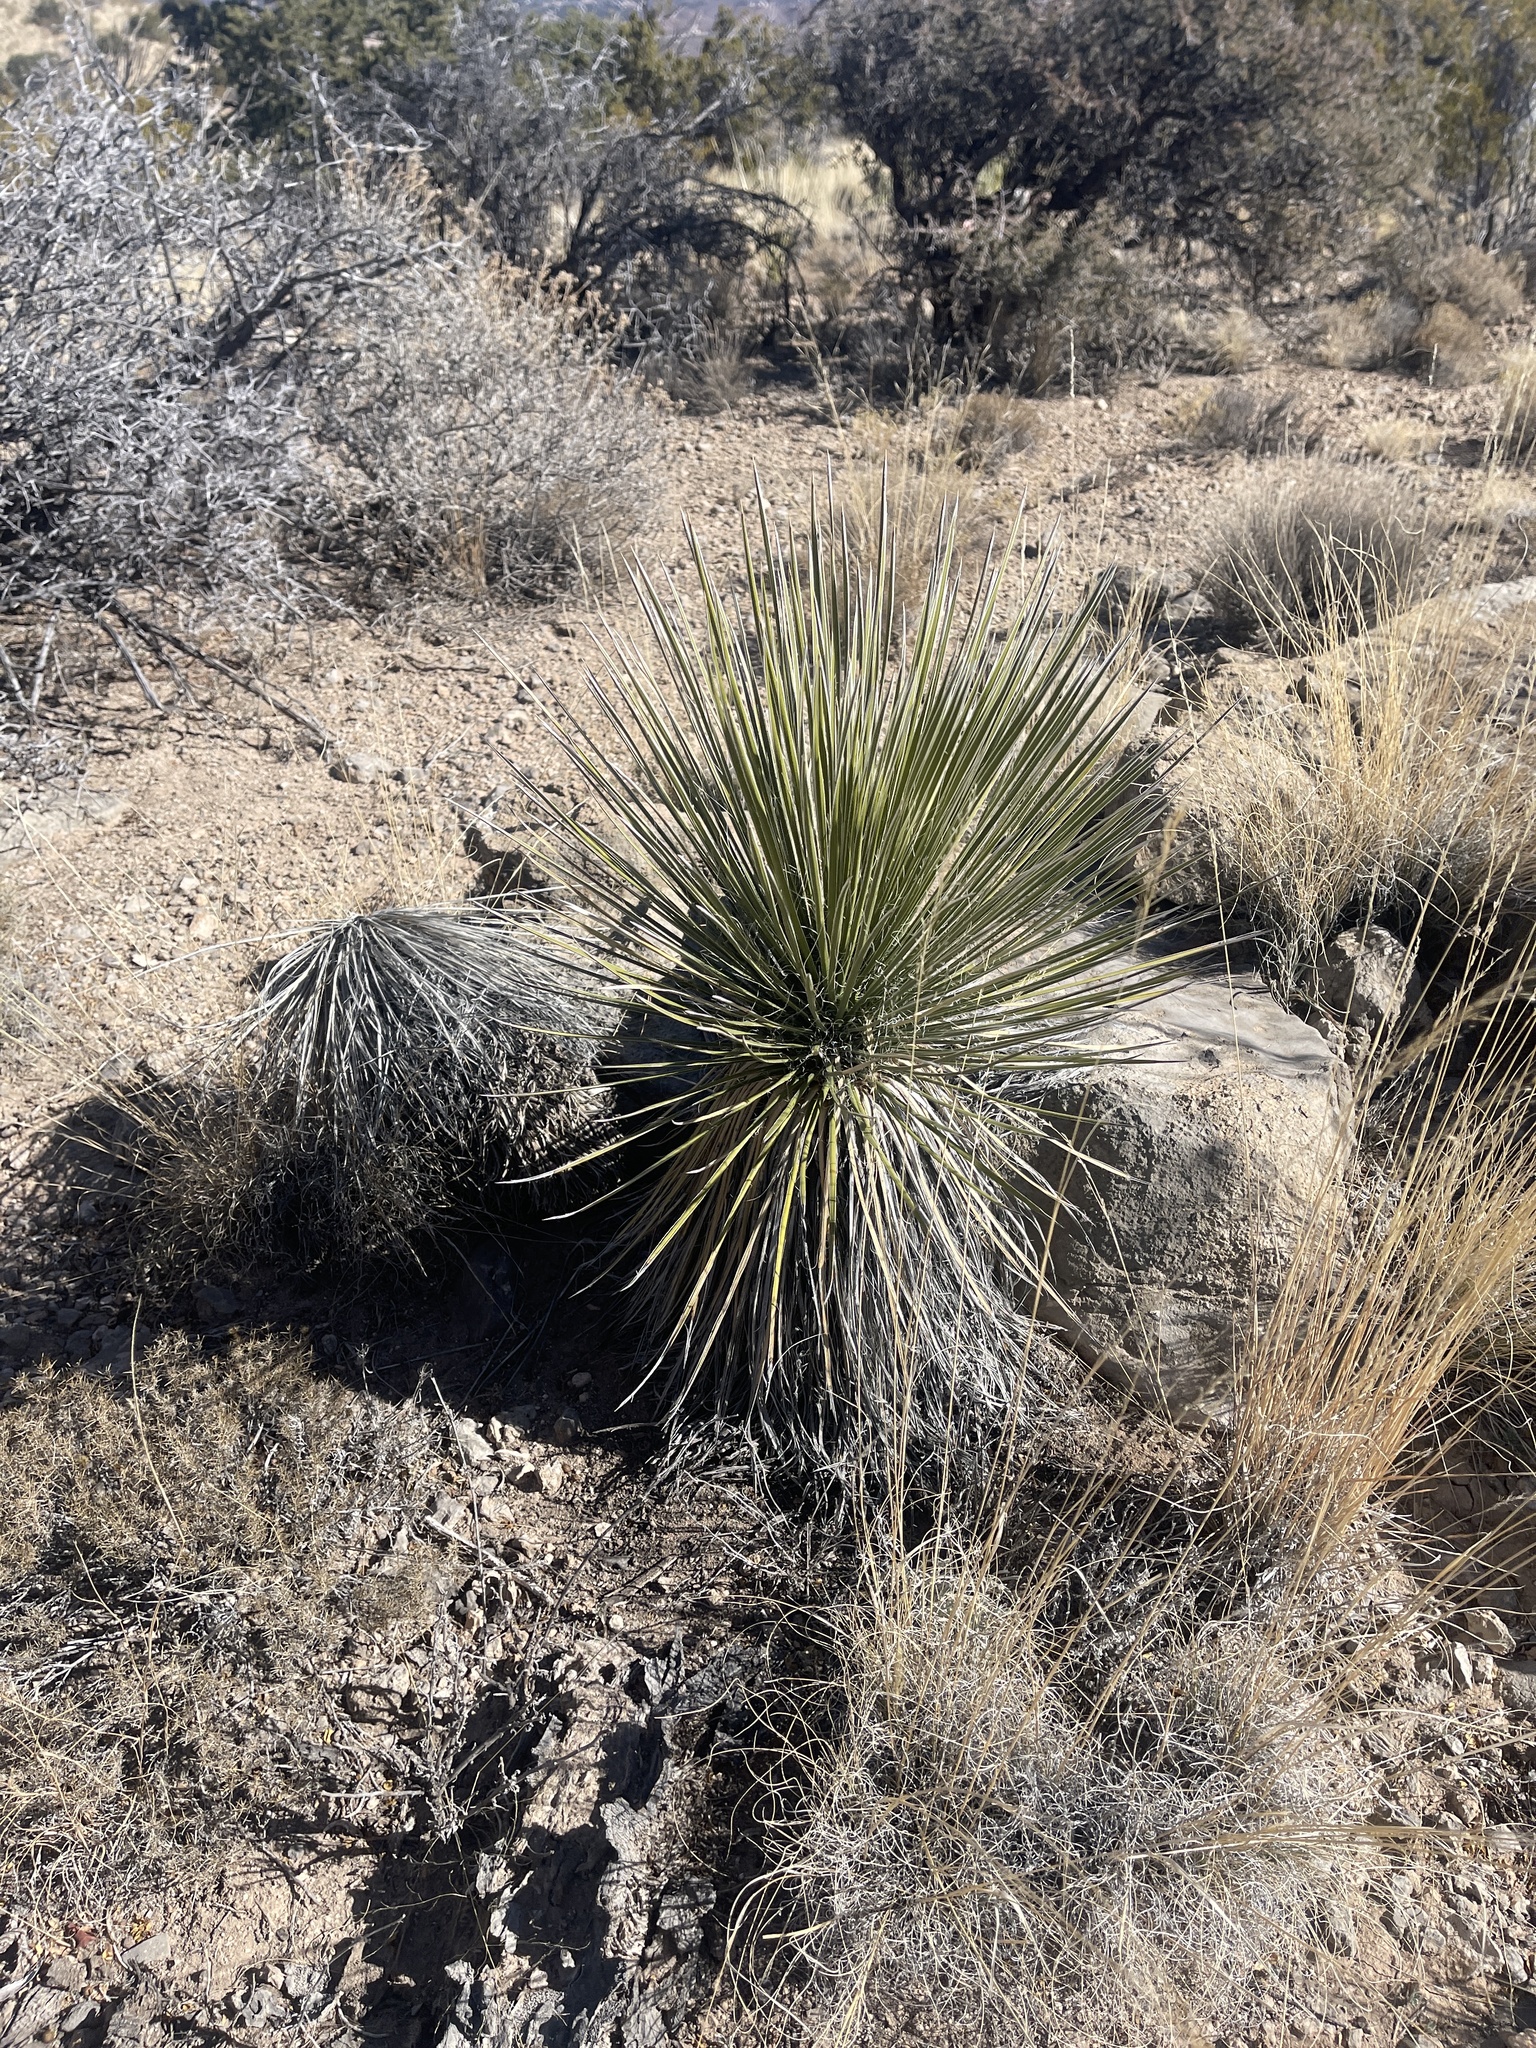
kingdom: Plantae
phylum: Tracheophyta
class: Liliopsida
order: Asparagales
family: Asparagaceae
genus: Yucca
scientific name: Yucca elata
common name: Palmella
